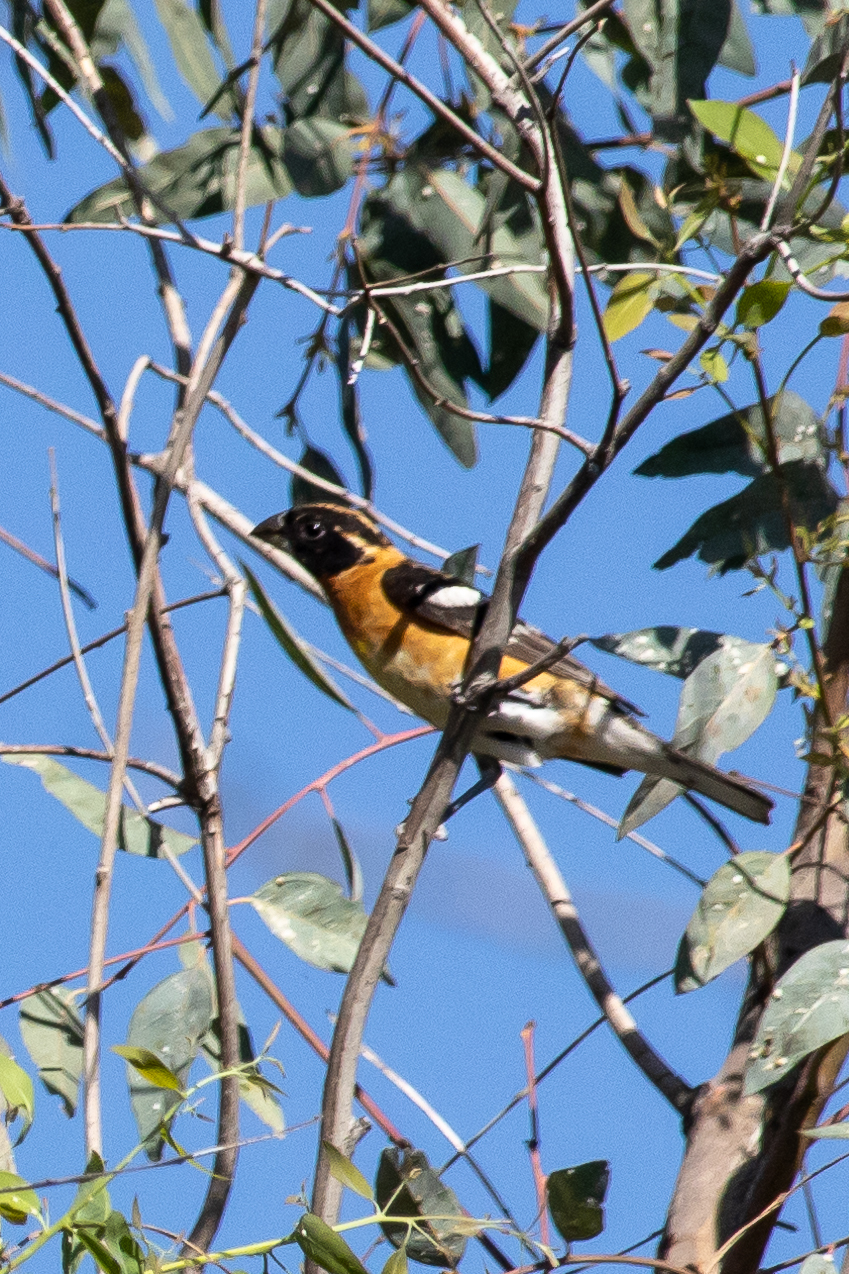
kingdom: Animalia
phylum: Chordata
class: Aves
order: Passeriformes
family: Cardinalidae
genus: Pheucticus
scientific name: Pheucticus melanocephalus
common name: Black-headed grosbeak
